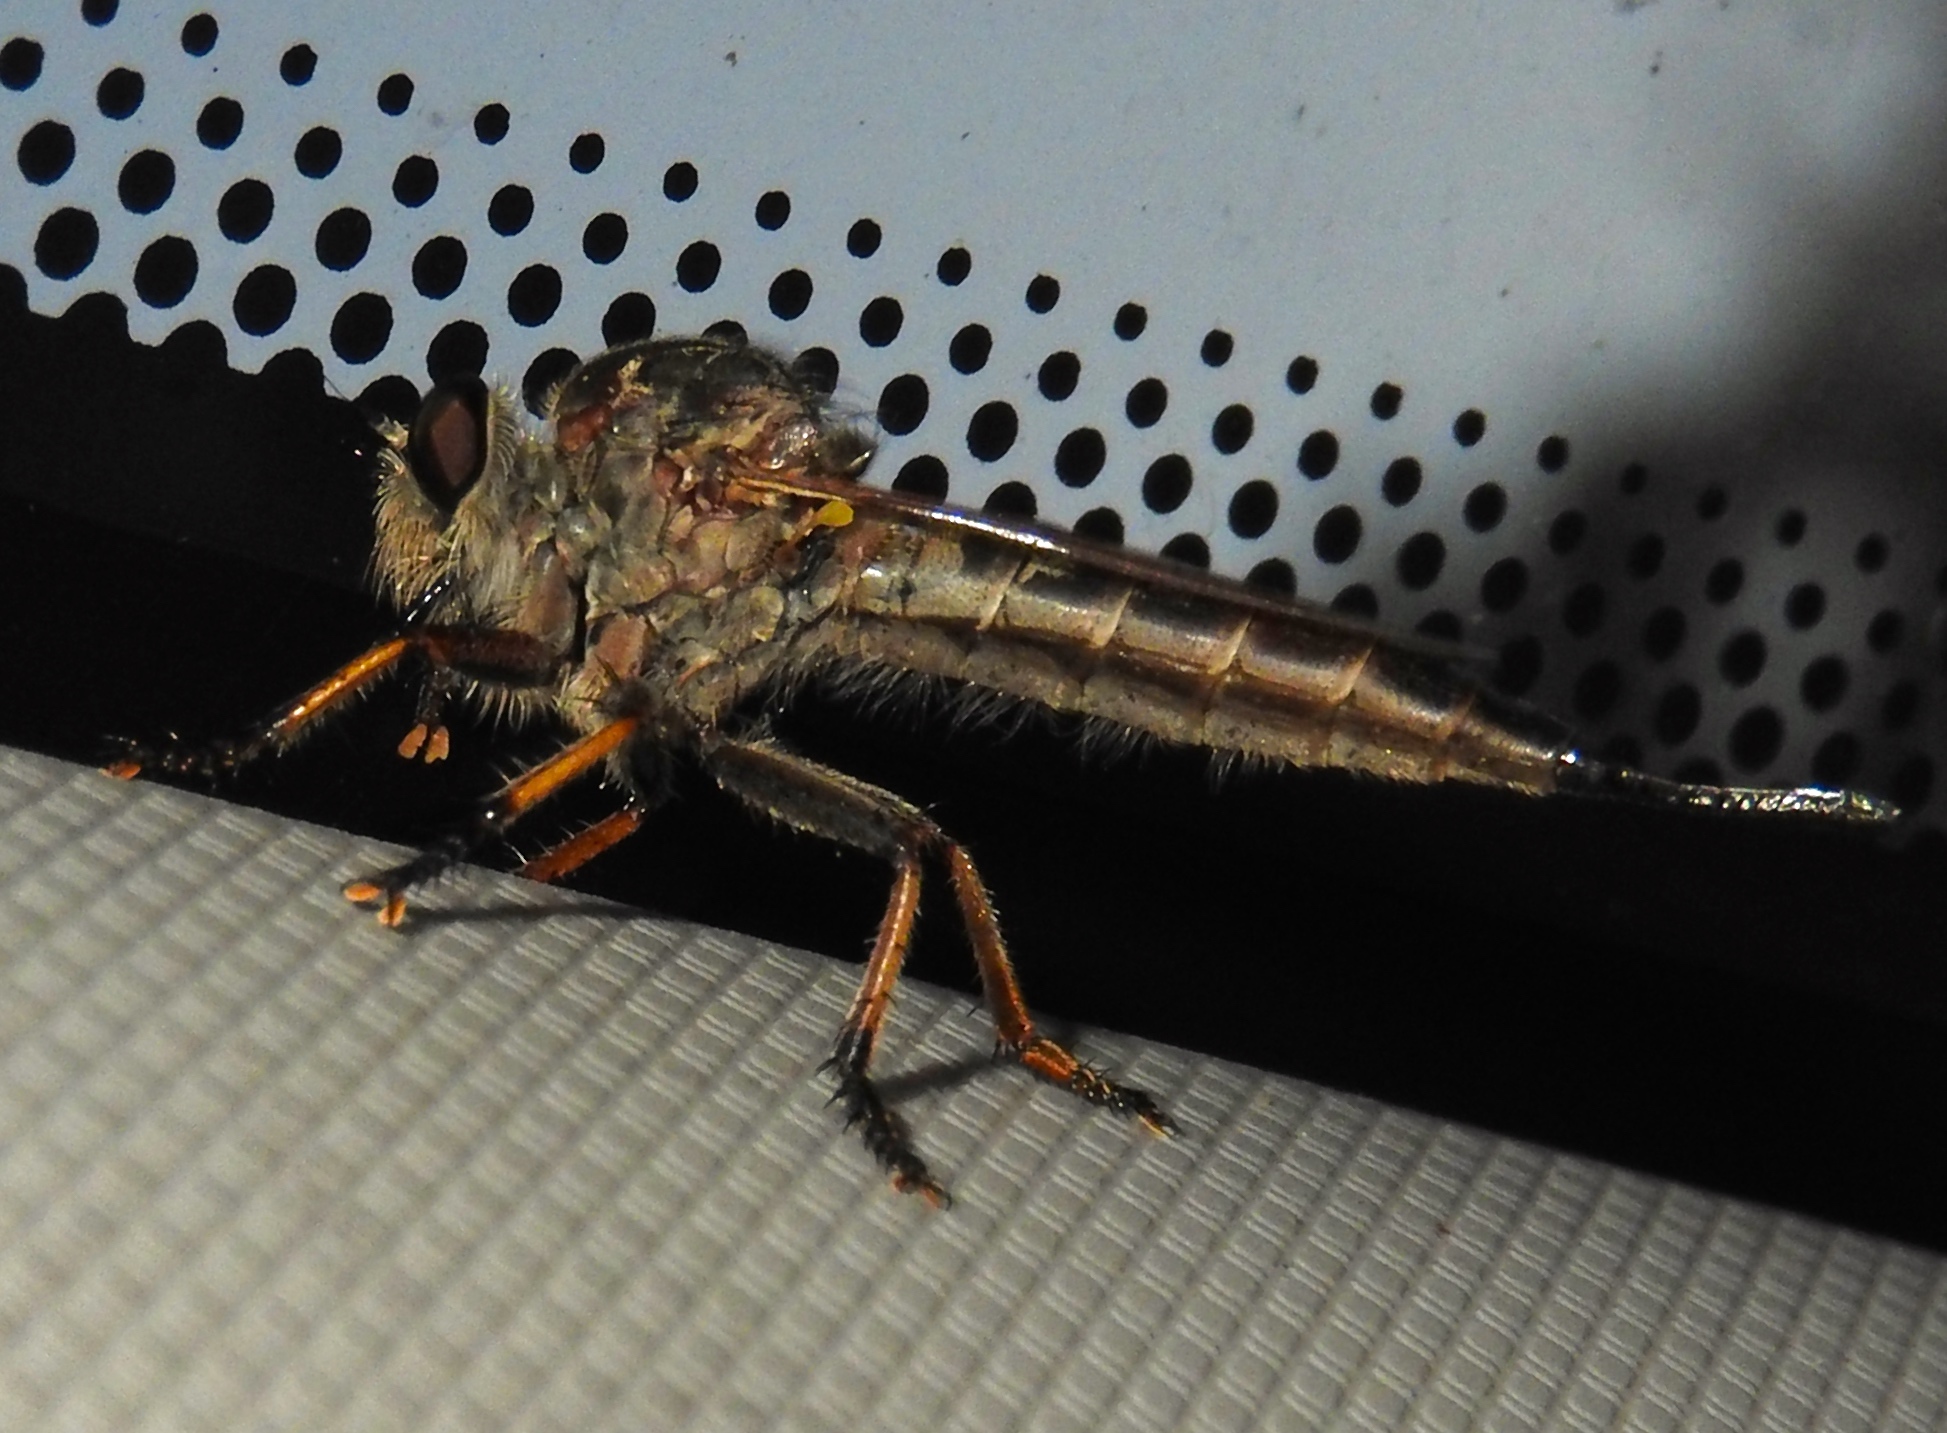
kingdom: Animalia
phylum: Arthropoda
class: Insecta
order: Diptera
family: Asilidae
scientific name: Asilidae
